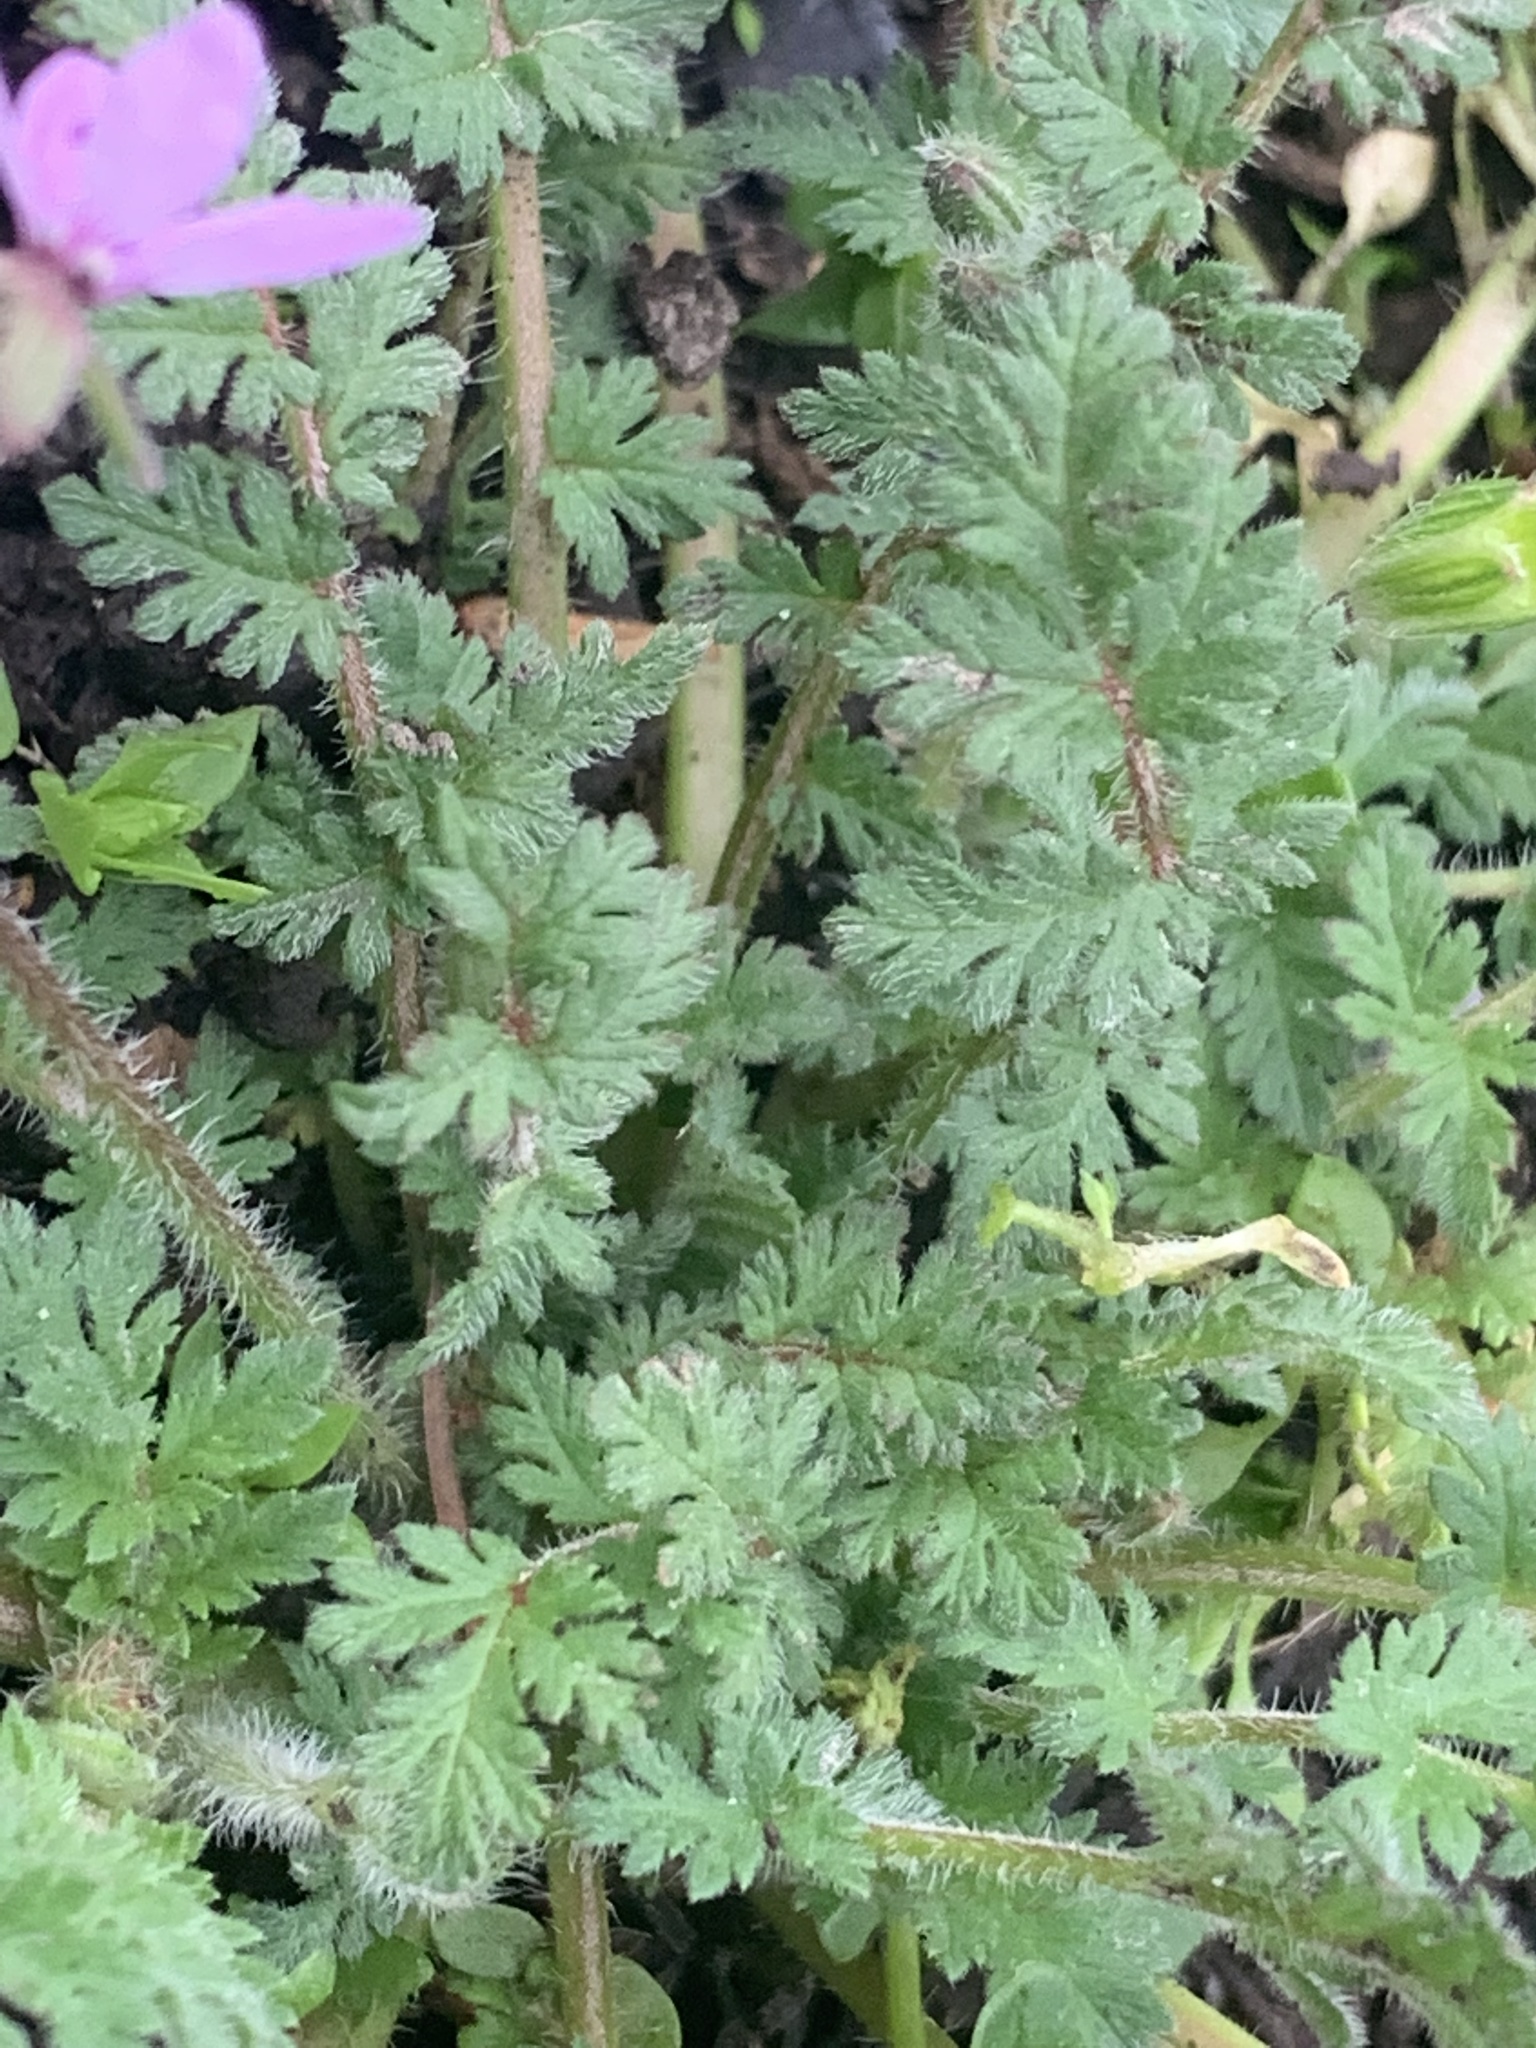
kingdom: Plantae
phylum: Tracheophyta
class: Magnoliopsida
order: Geraniales
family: Geraniaceae
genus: Erodium
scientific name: Erodium cicutarium
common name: Common stork's-bill
